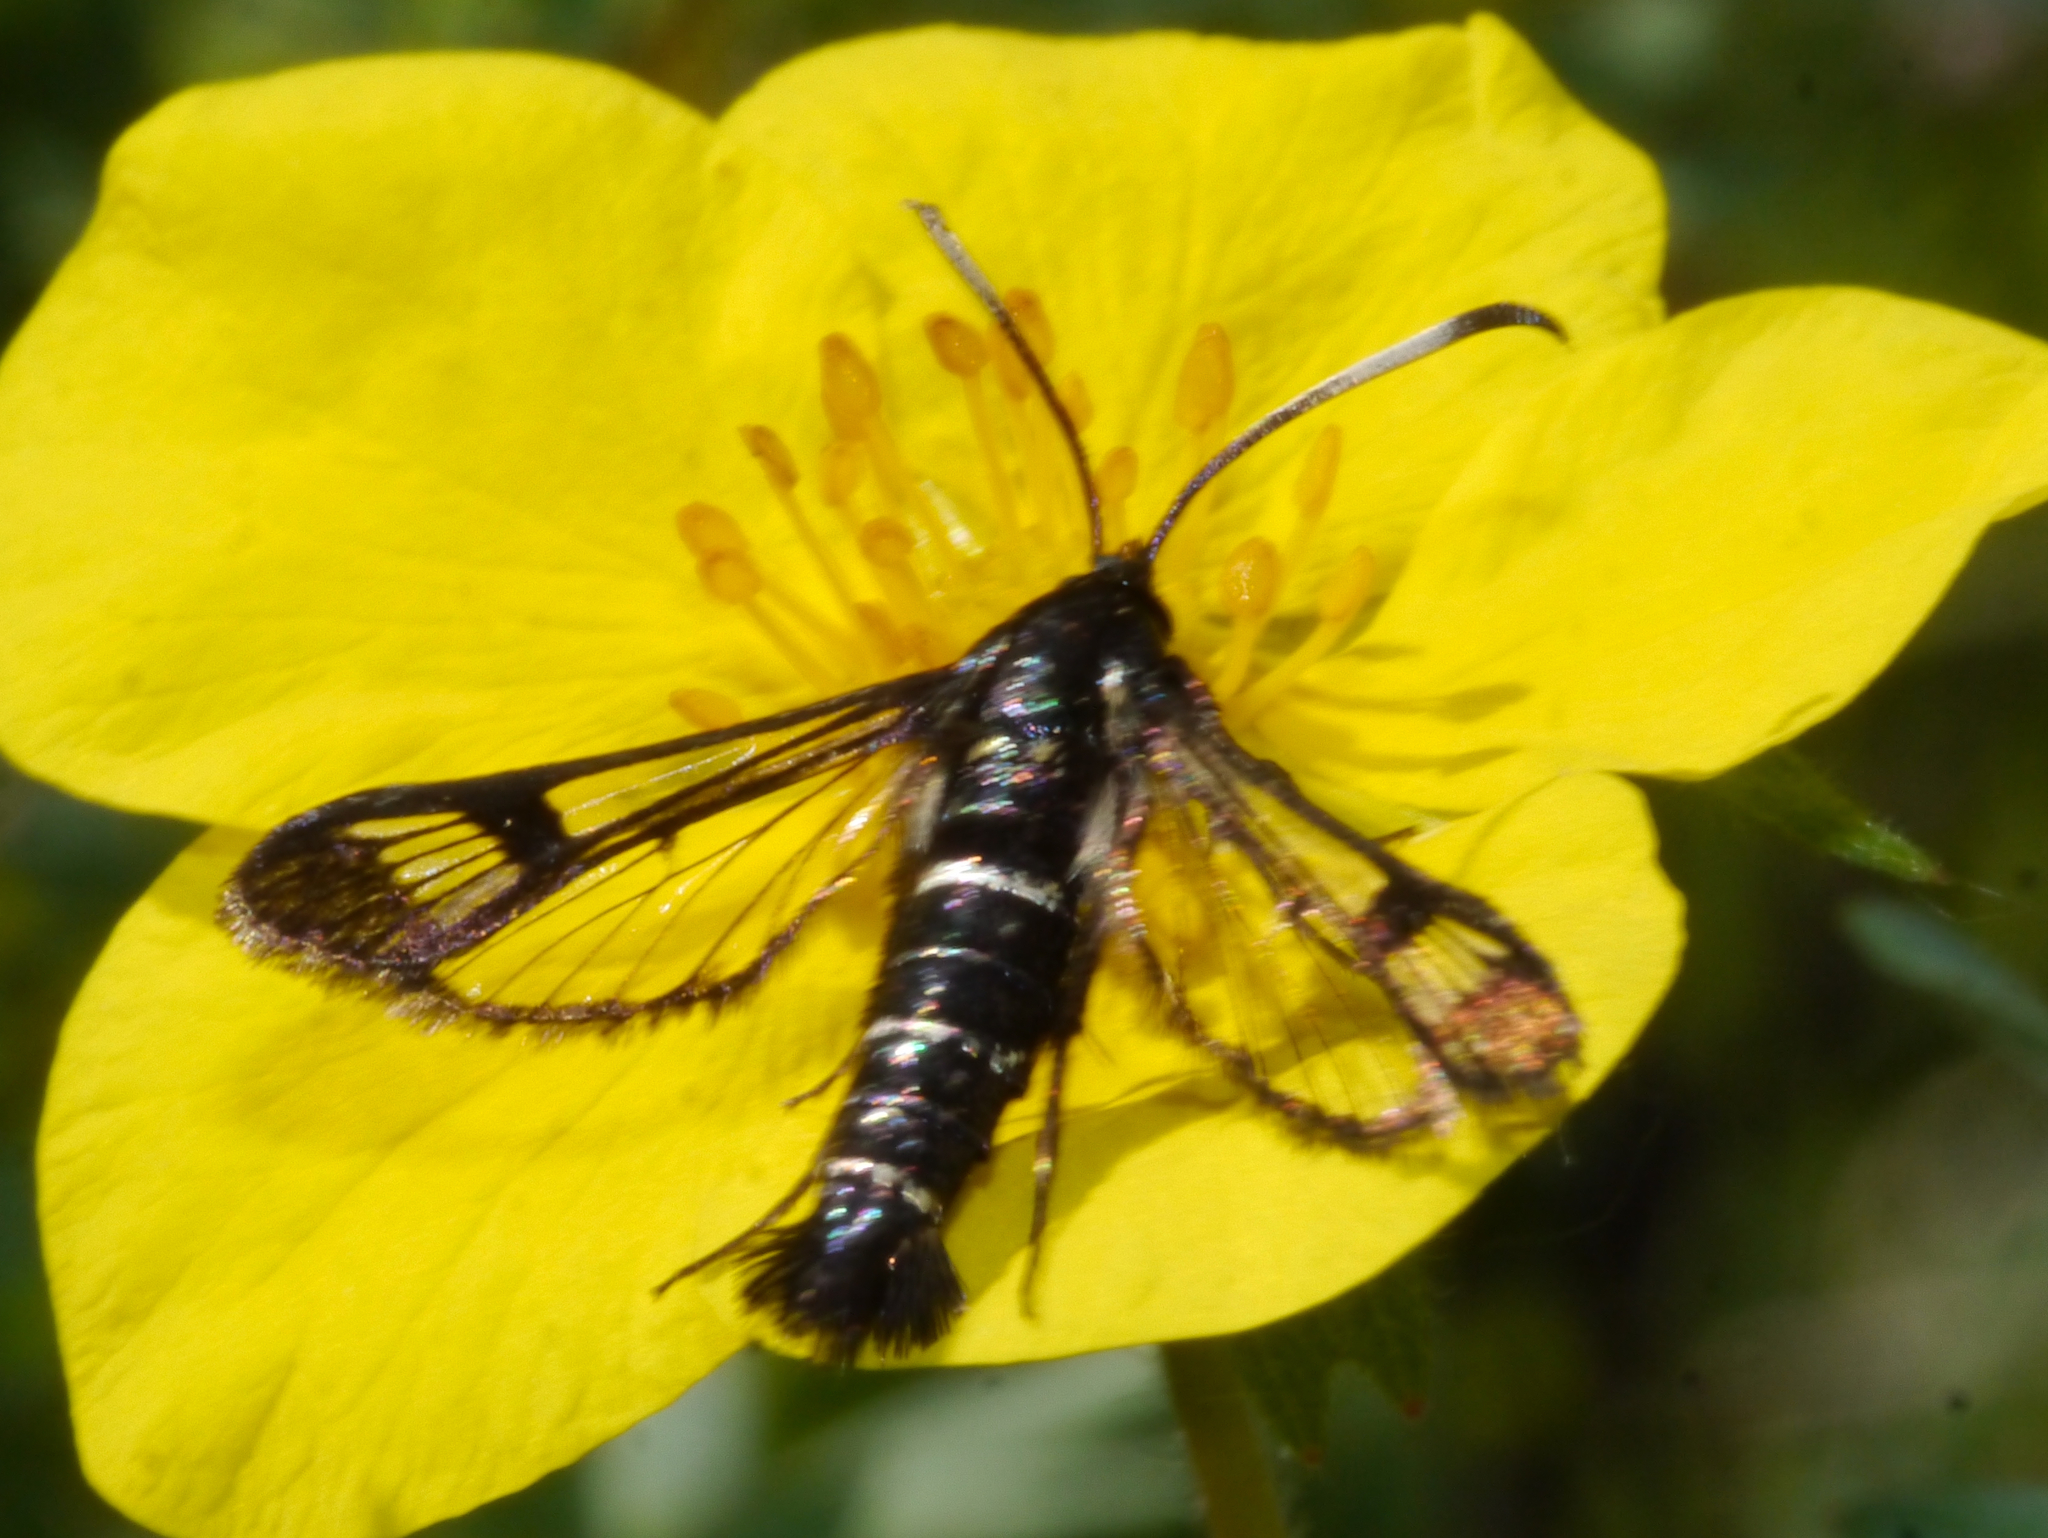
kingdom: Animalia
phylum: Arthropoda
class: Insecta
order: Lepidoptera
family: Sesiidae
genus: Synanthedon
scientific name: Synanthedon arctica
